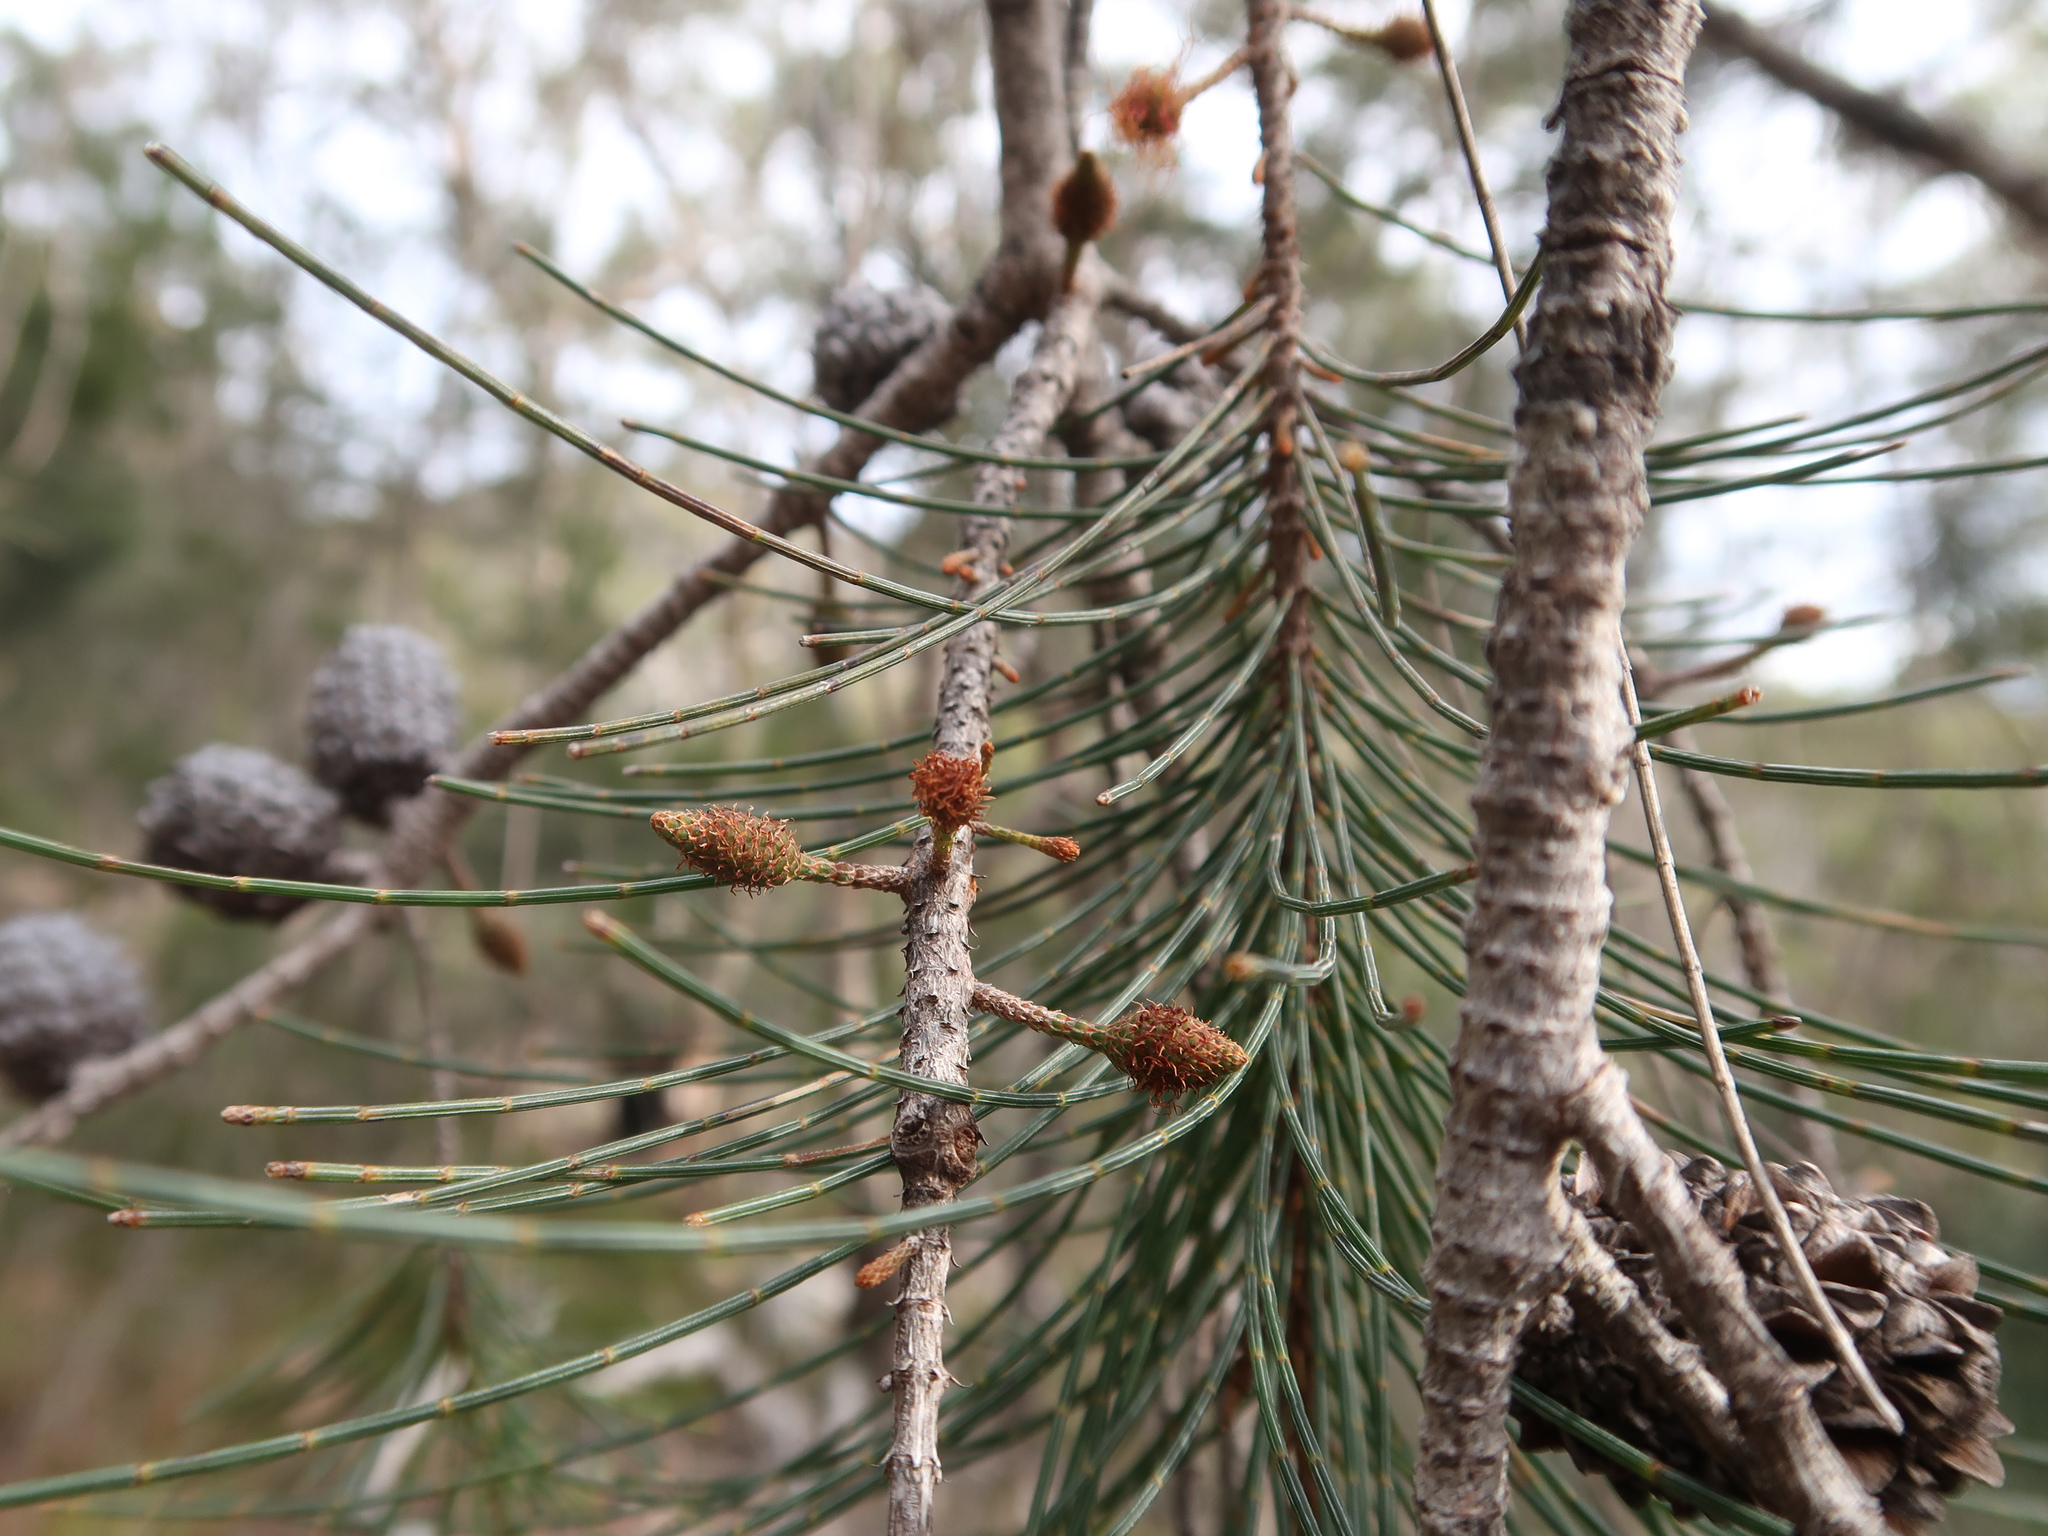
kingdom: Plantae
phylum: Tracheophyta
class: Magnoliopsida
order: Fagales
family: Casuarinaceae
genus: Allocasuarina
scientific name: Allocasuarina littoralis
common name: Black she-oak
